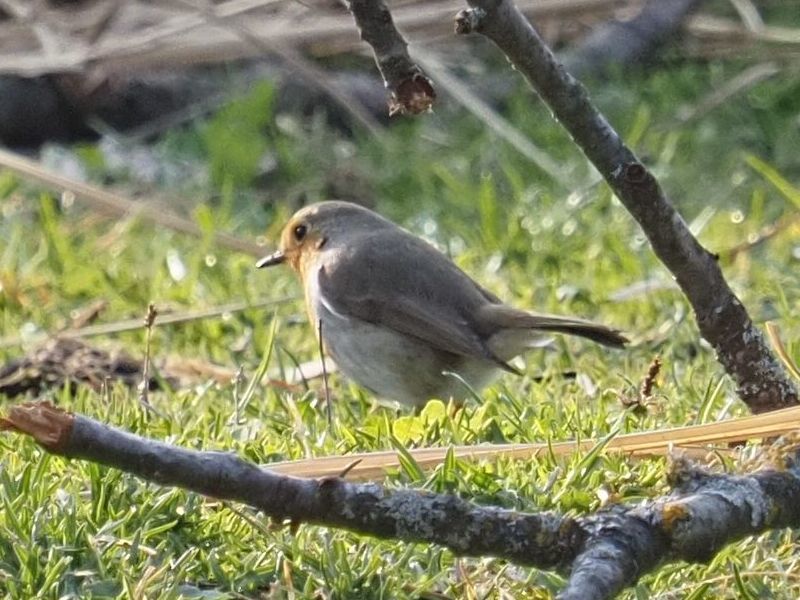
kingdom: Animalia
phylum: Chordata
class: Aves
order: Passeriformes
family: Muscicapidae
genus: Erithacus
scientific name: Erithacus rubecula
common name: European robin
